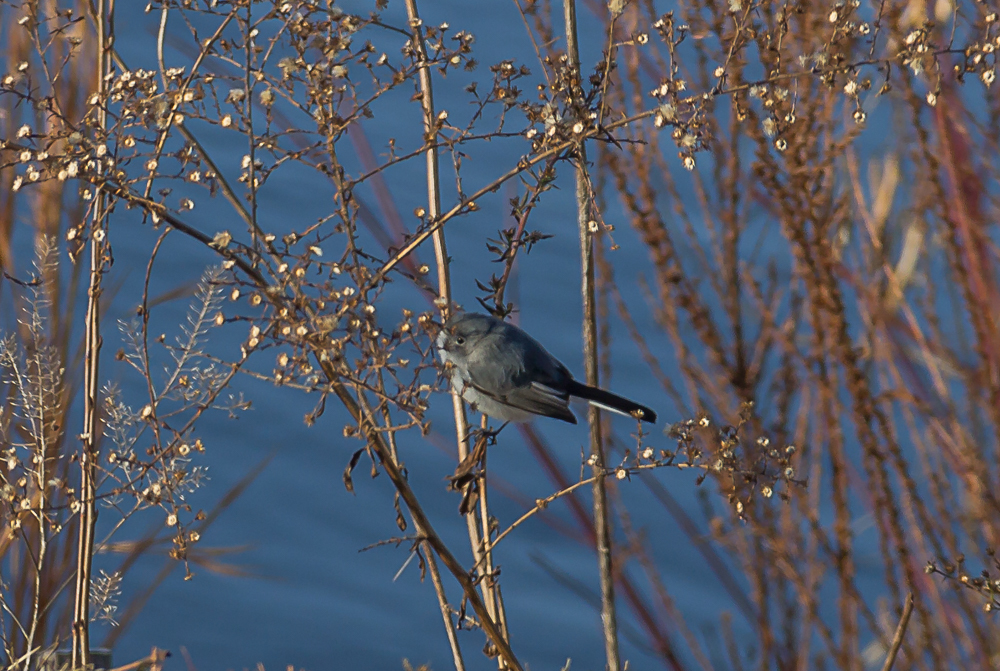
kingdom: Animalia
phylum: Chordata
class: Aves
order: Passeriformes
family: Polioptilidae
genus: Polioptila
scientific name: Polioptila caerulea
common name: Blue-gray gnatcatcher
